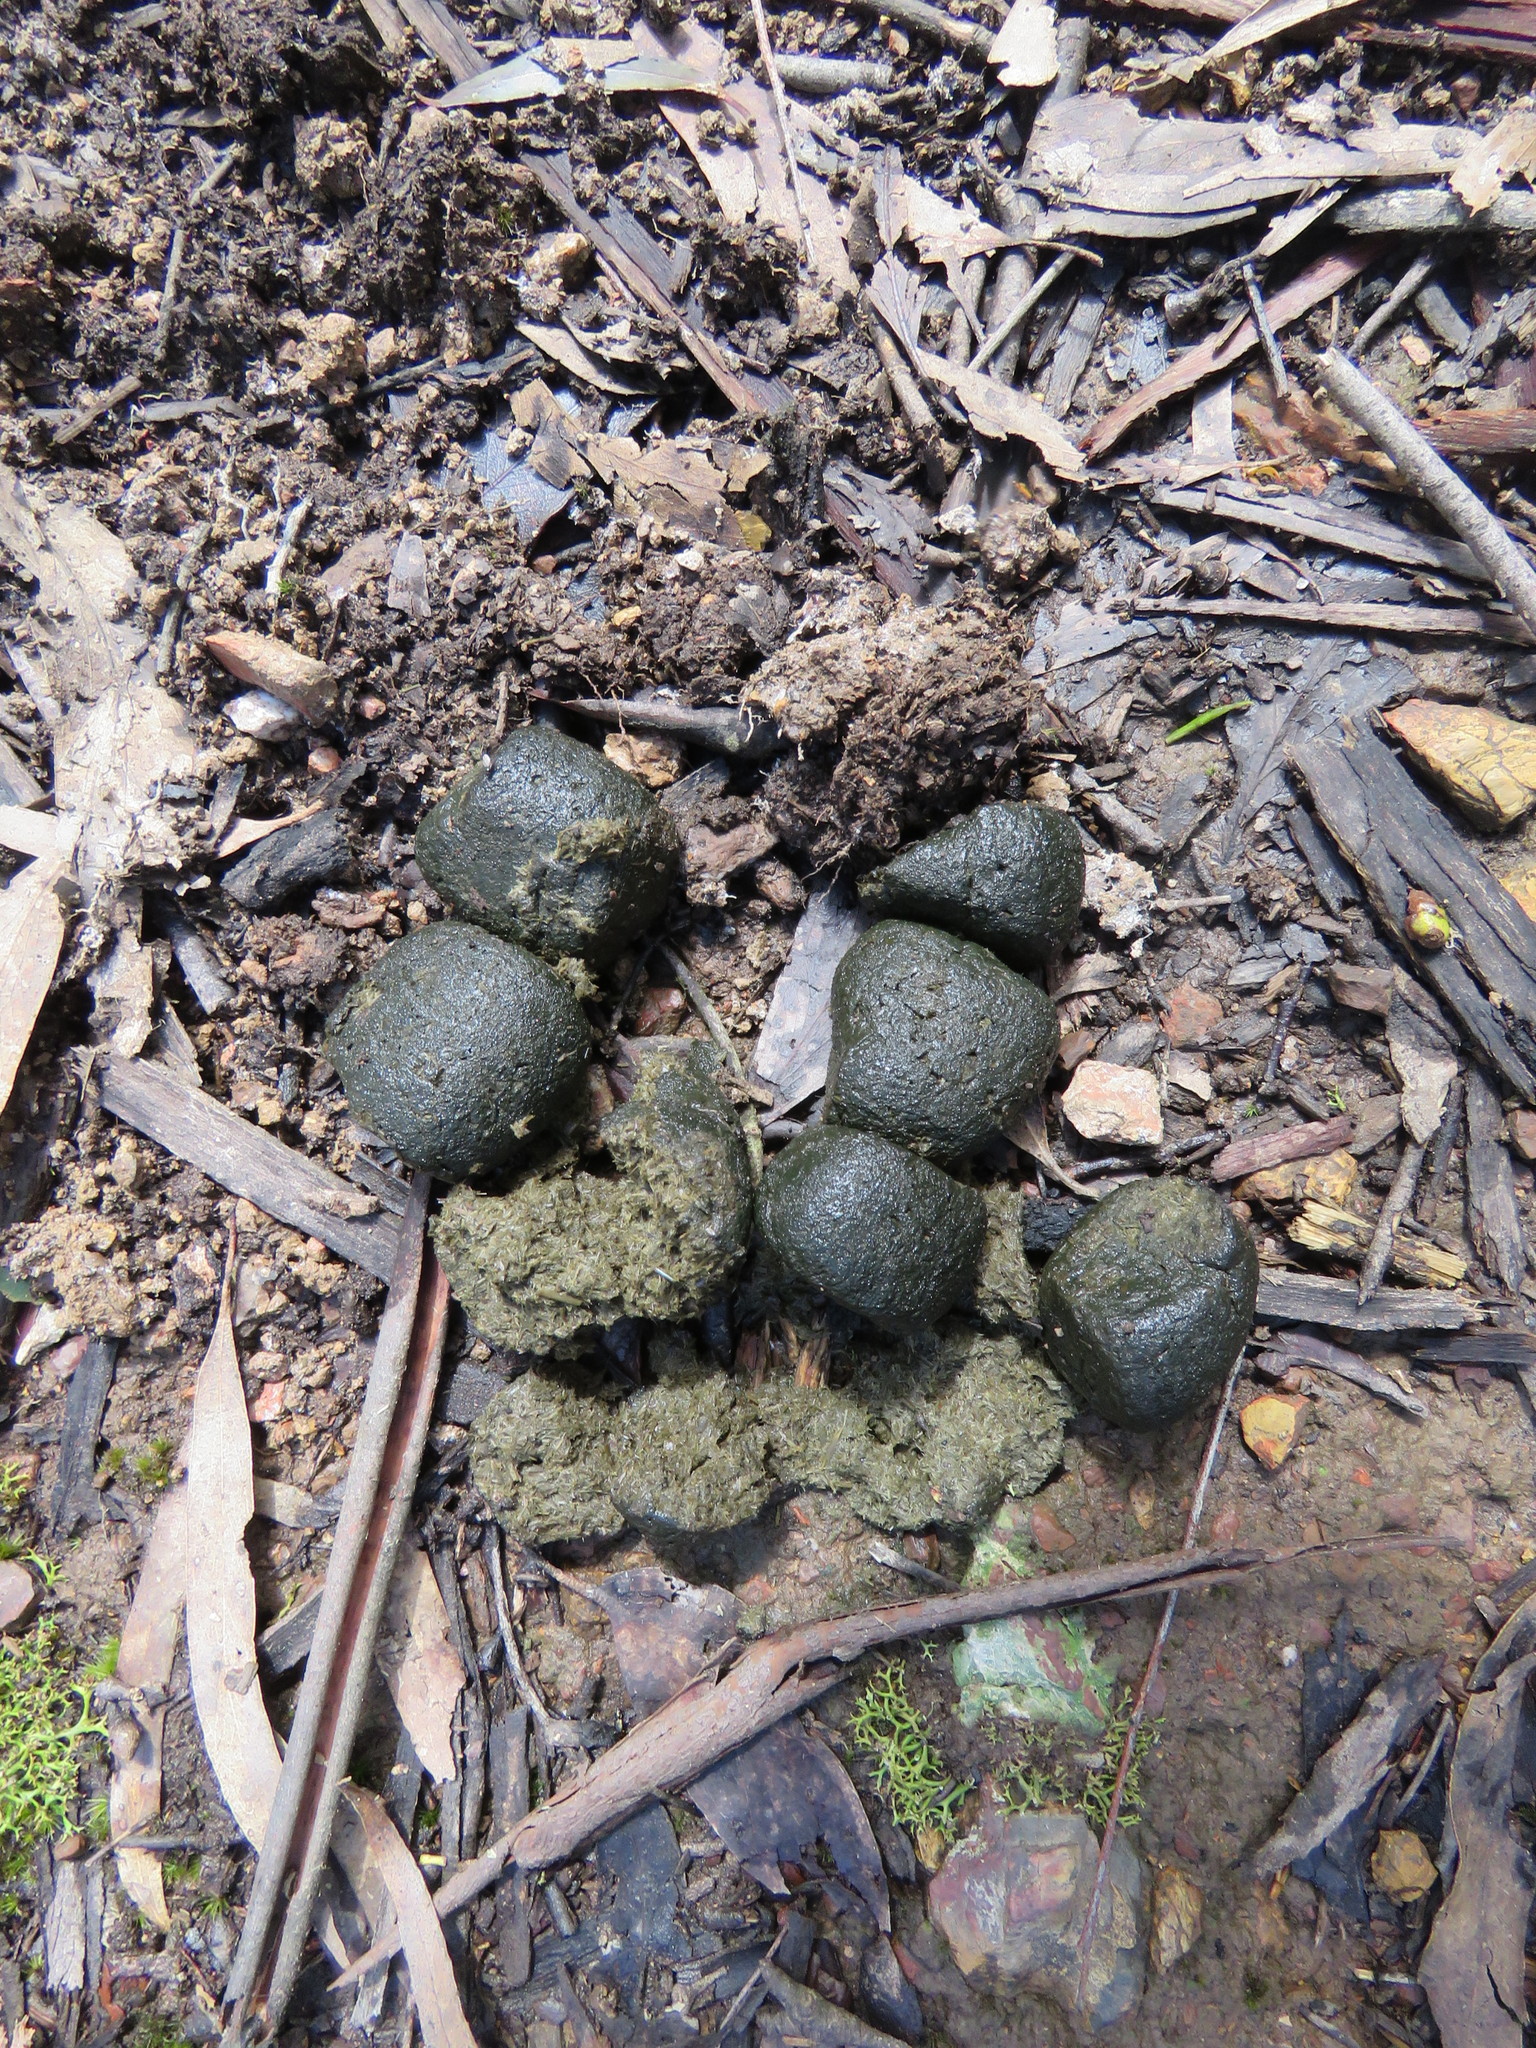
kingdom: Animalia
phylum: Chordata
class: Mammalia
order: Diprotodontia
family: Vombatidae
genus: Vombatus
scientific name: Vombatus ursinus
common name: Common wombat
